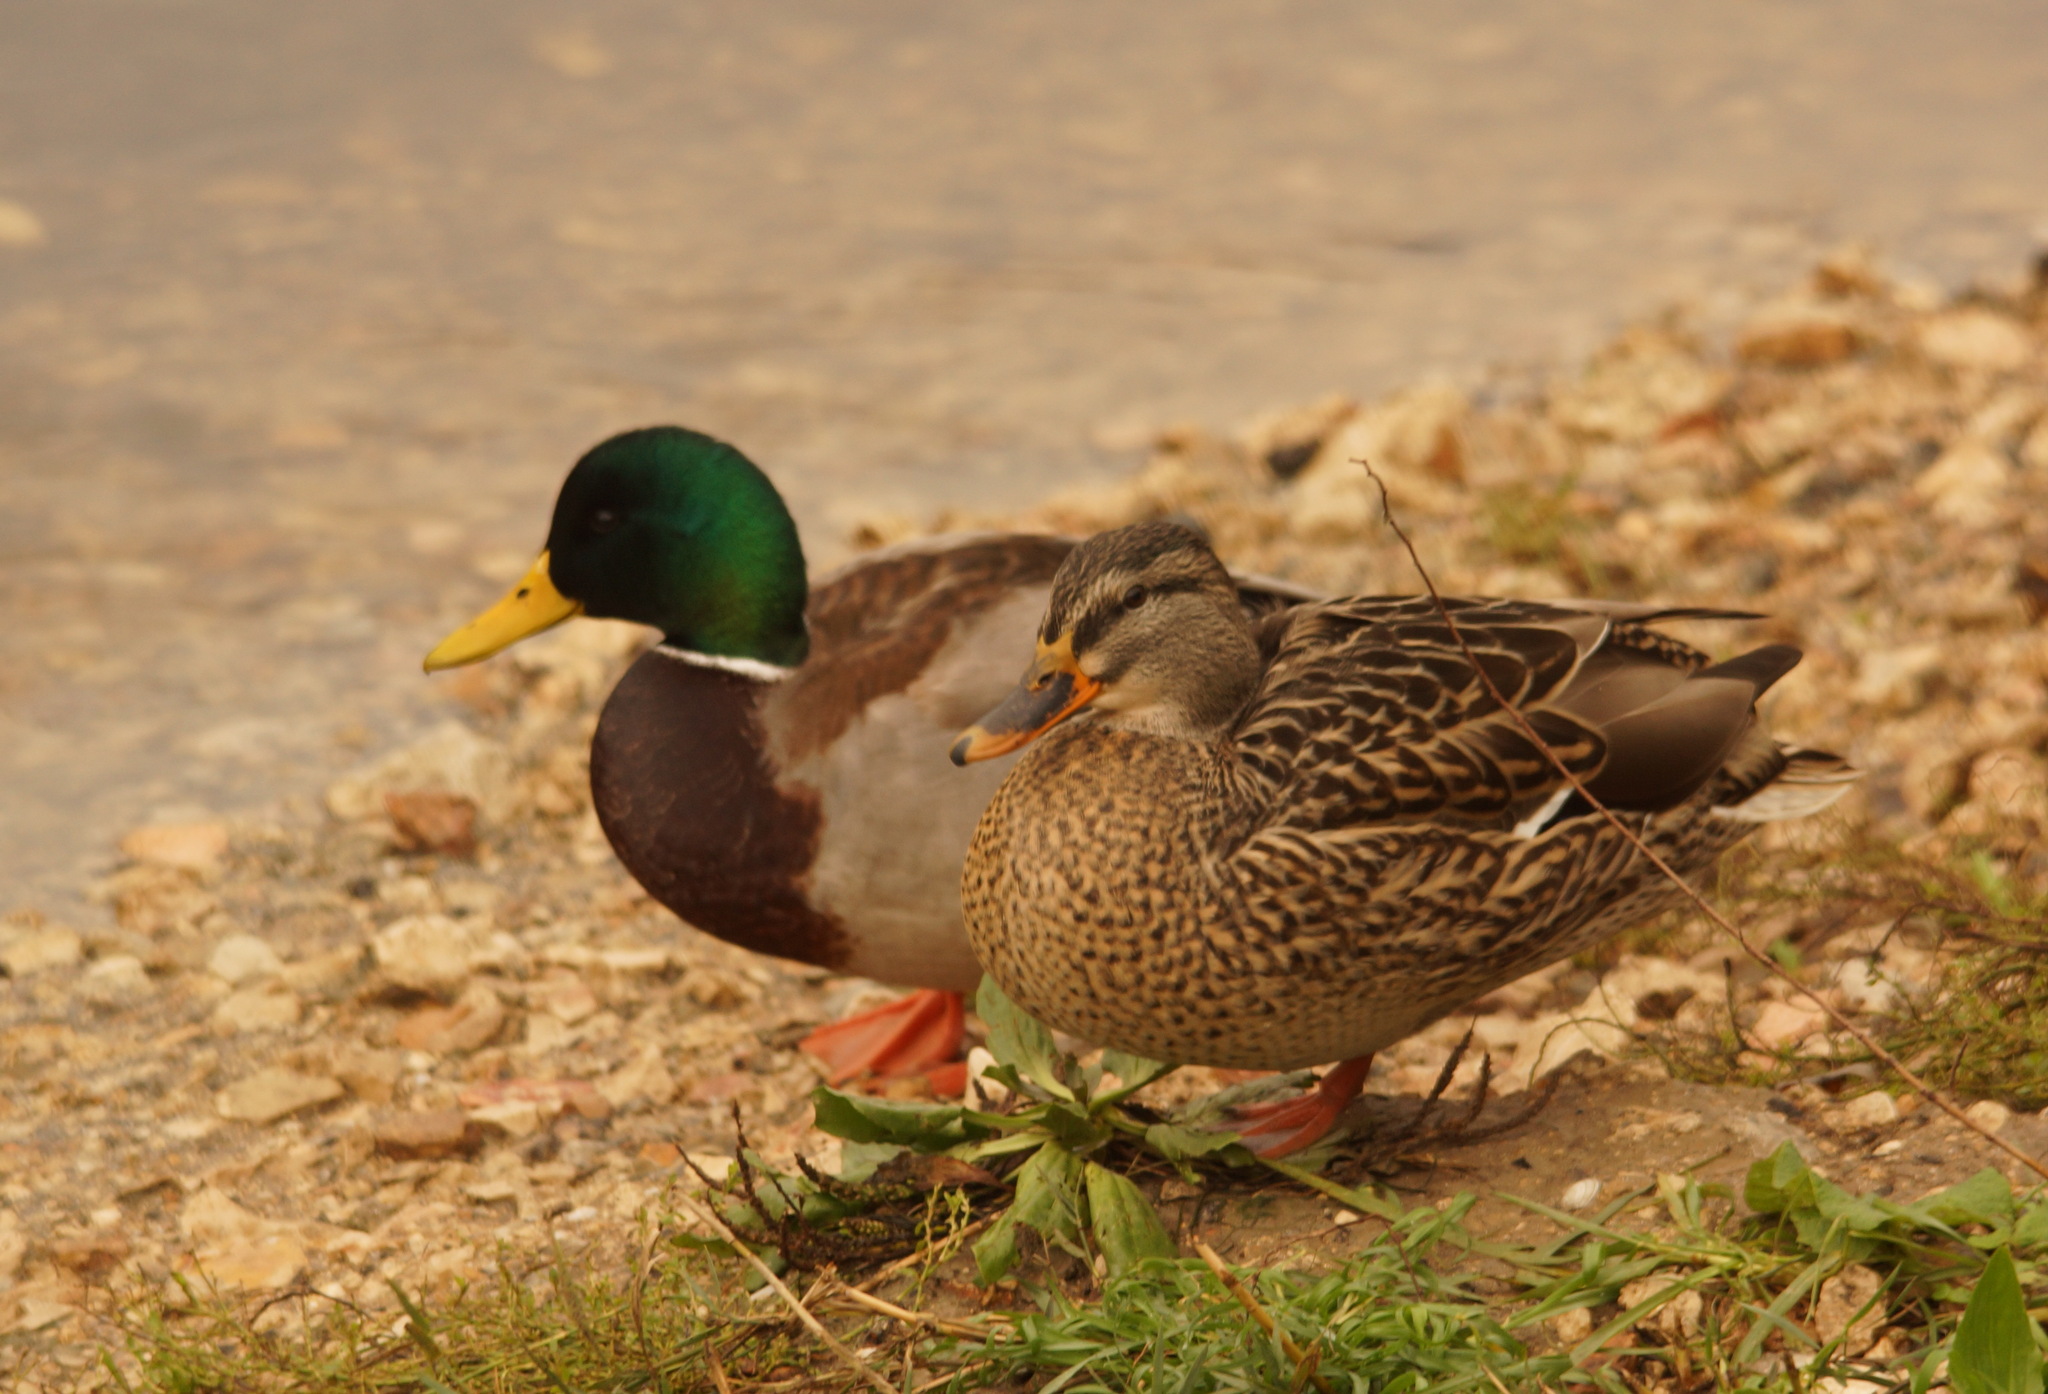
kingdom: Animalia
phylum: Chordata
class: Aves
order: Anseriformes
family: Anatidae
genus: Anas
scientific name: Anas platyrhynchos
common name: Mallard
